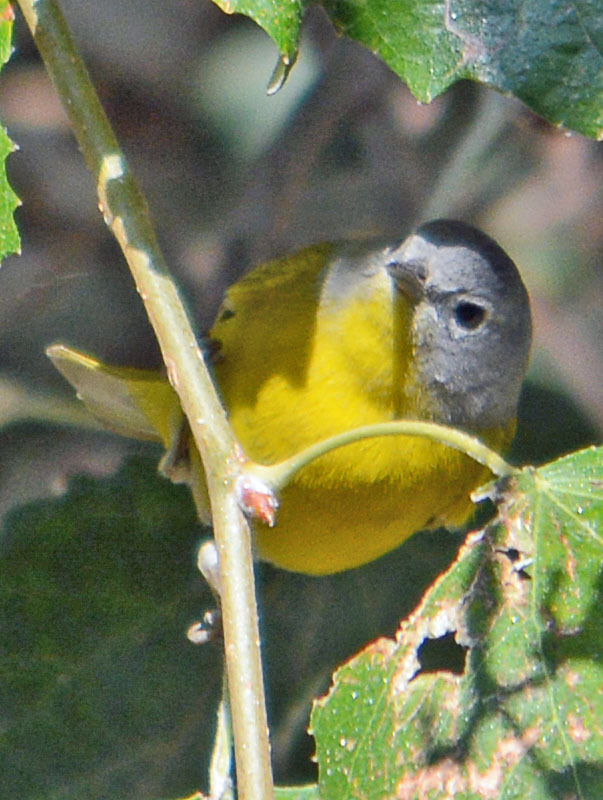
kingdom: Animalia
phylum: Chordata
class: Aves
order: Passeriformes
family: Parulidae
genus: Leiothlypis
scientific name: Leiothlypis ruficapilla
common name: Nashville warbler
